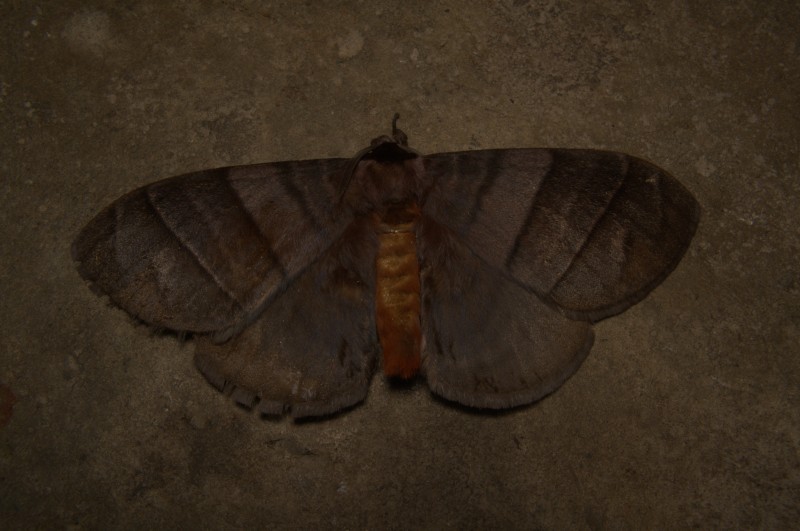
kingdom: Animalia
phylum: Arthropoda
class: Insecta
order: Lepidoptera
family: Eupterotidae
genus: Pseudojana
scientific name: Pseudojana
